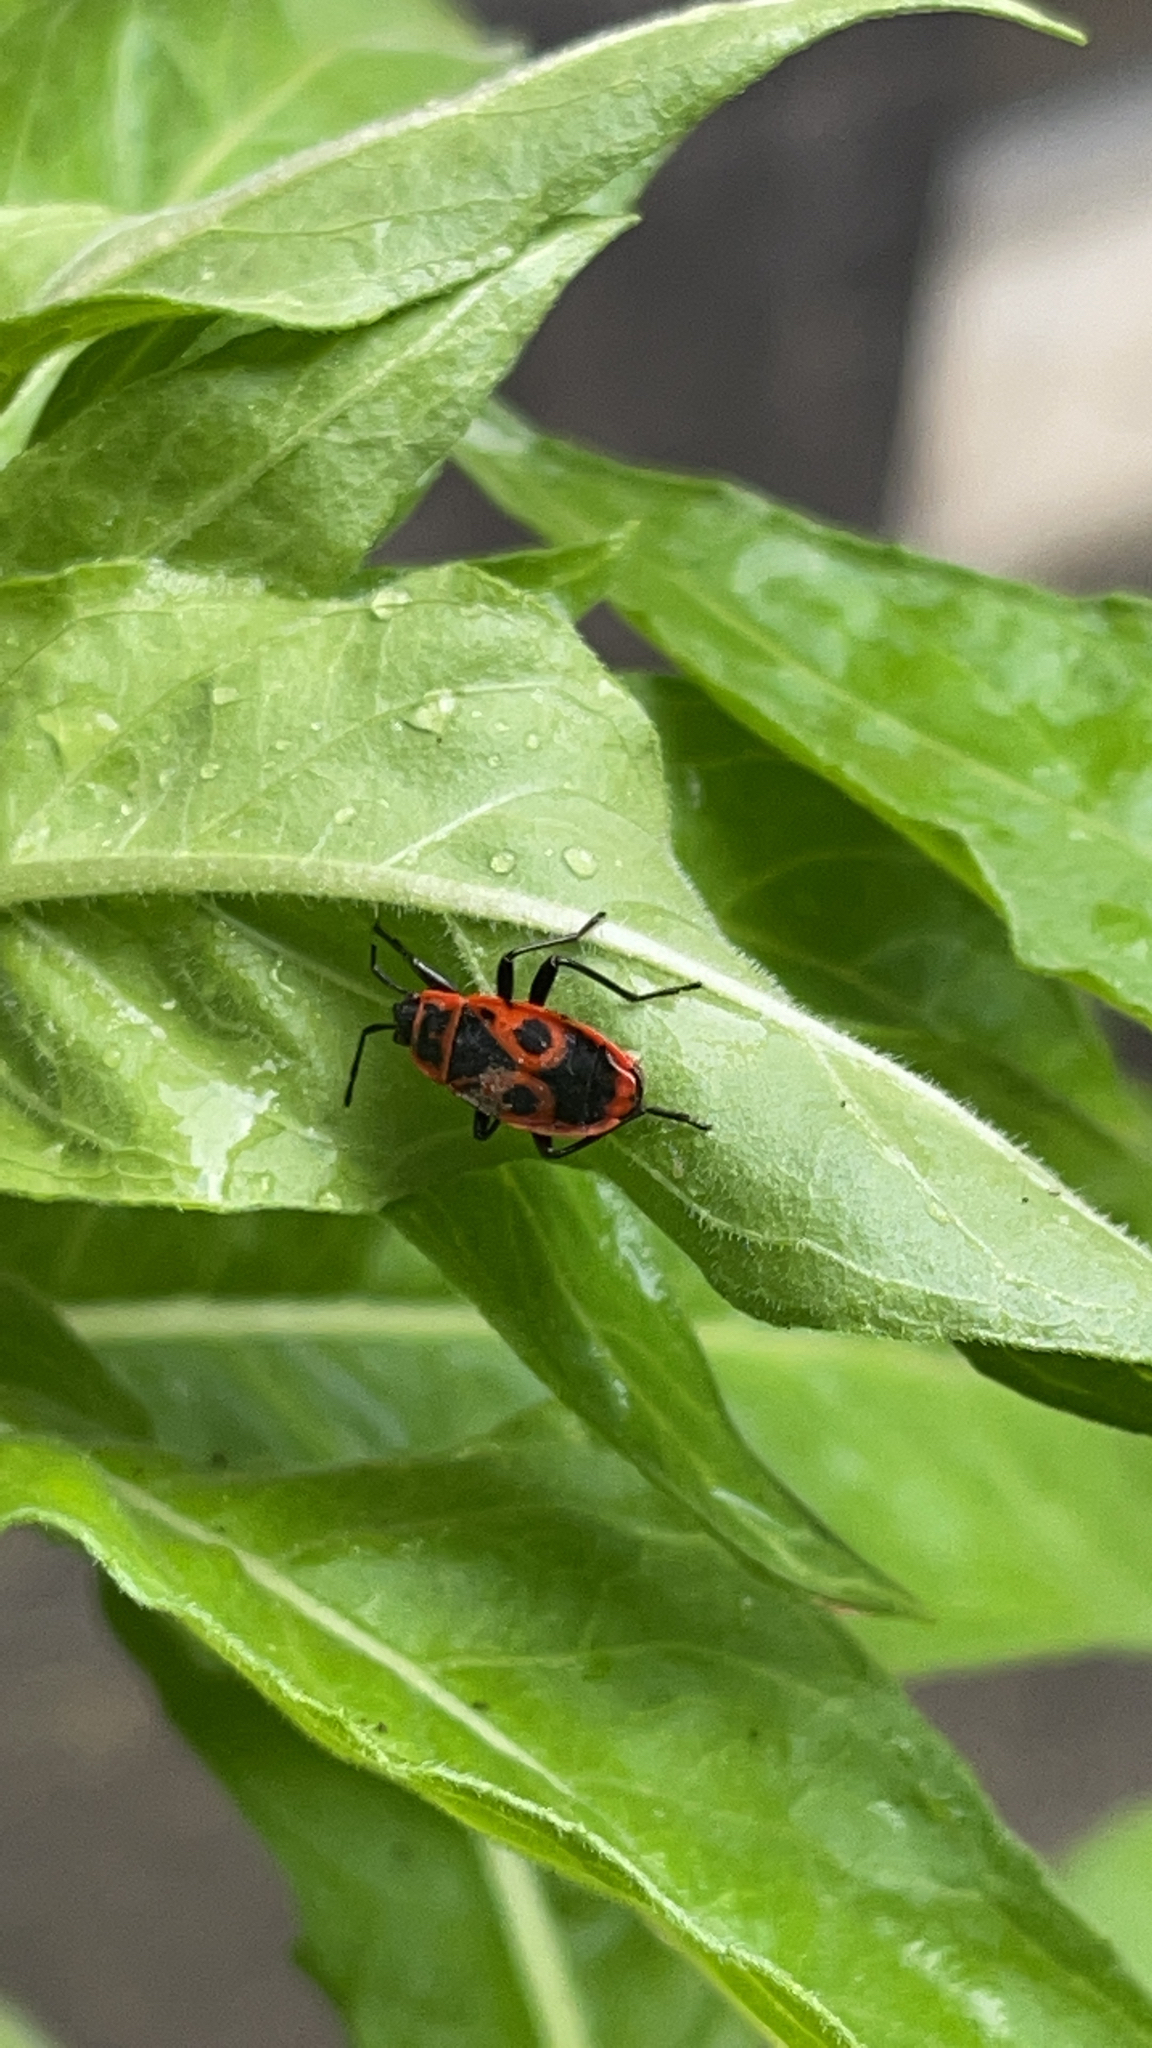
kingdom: Animalia
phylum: Arthropoda
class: Insecta
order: Hemiptera
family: Pyrrhocoridae
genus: Pyrrhocoris
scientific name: Pyrrhocoris apterus
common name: Firebug
